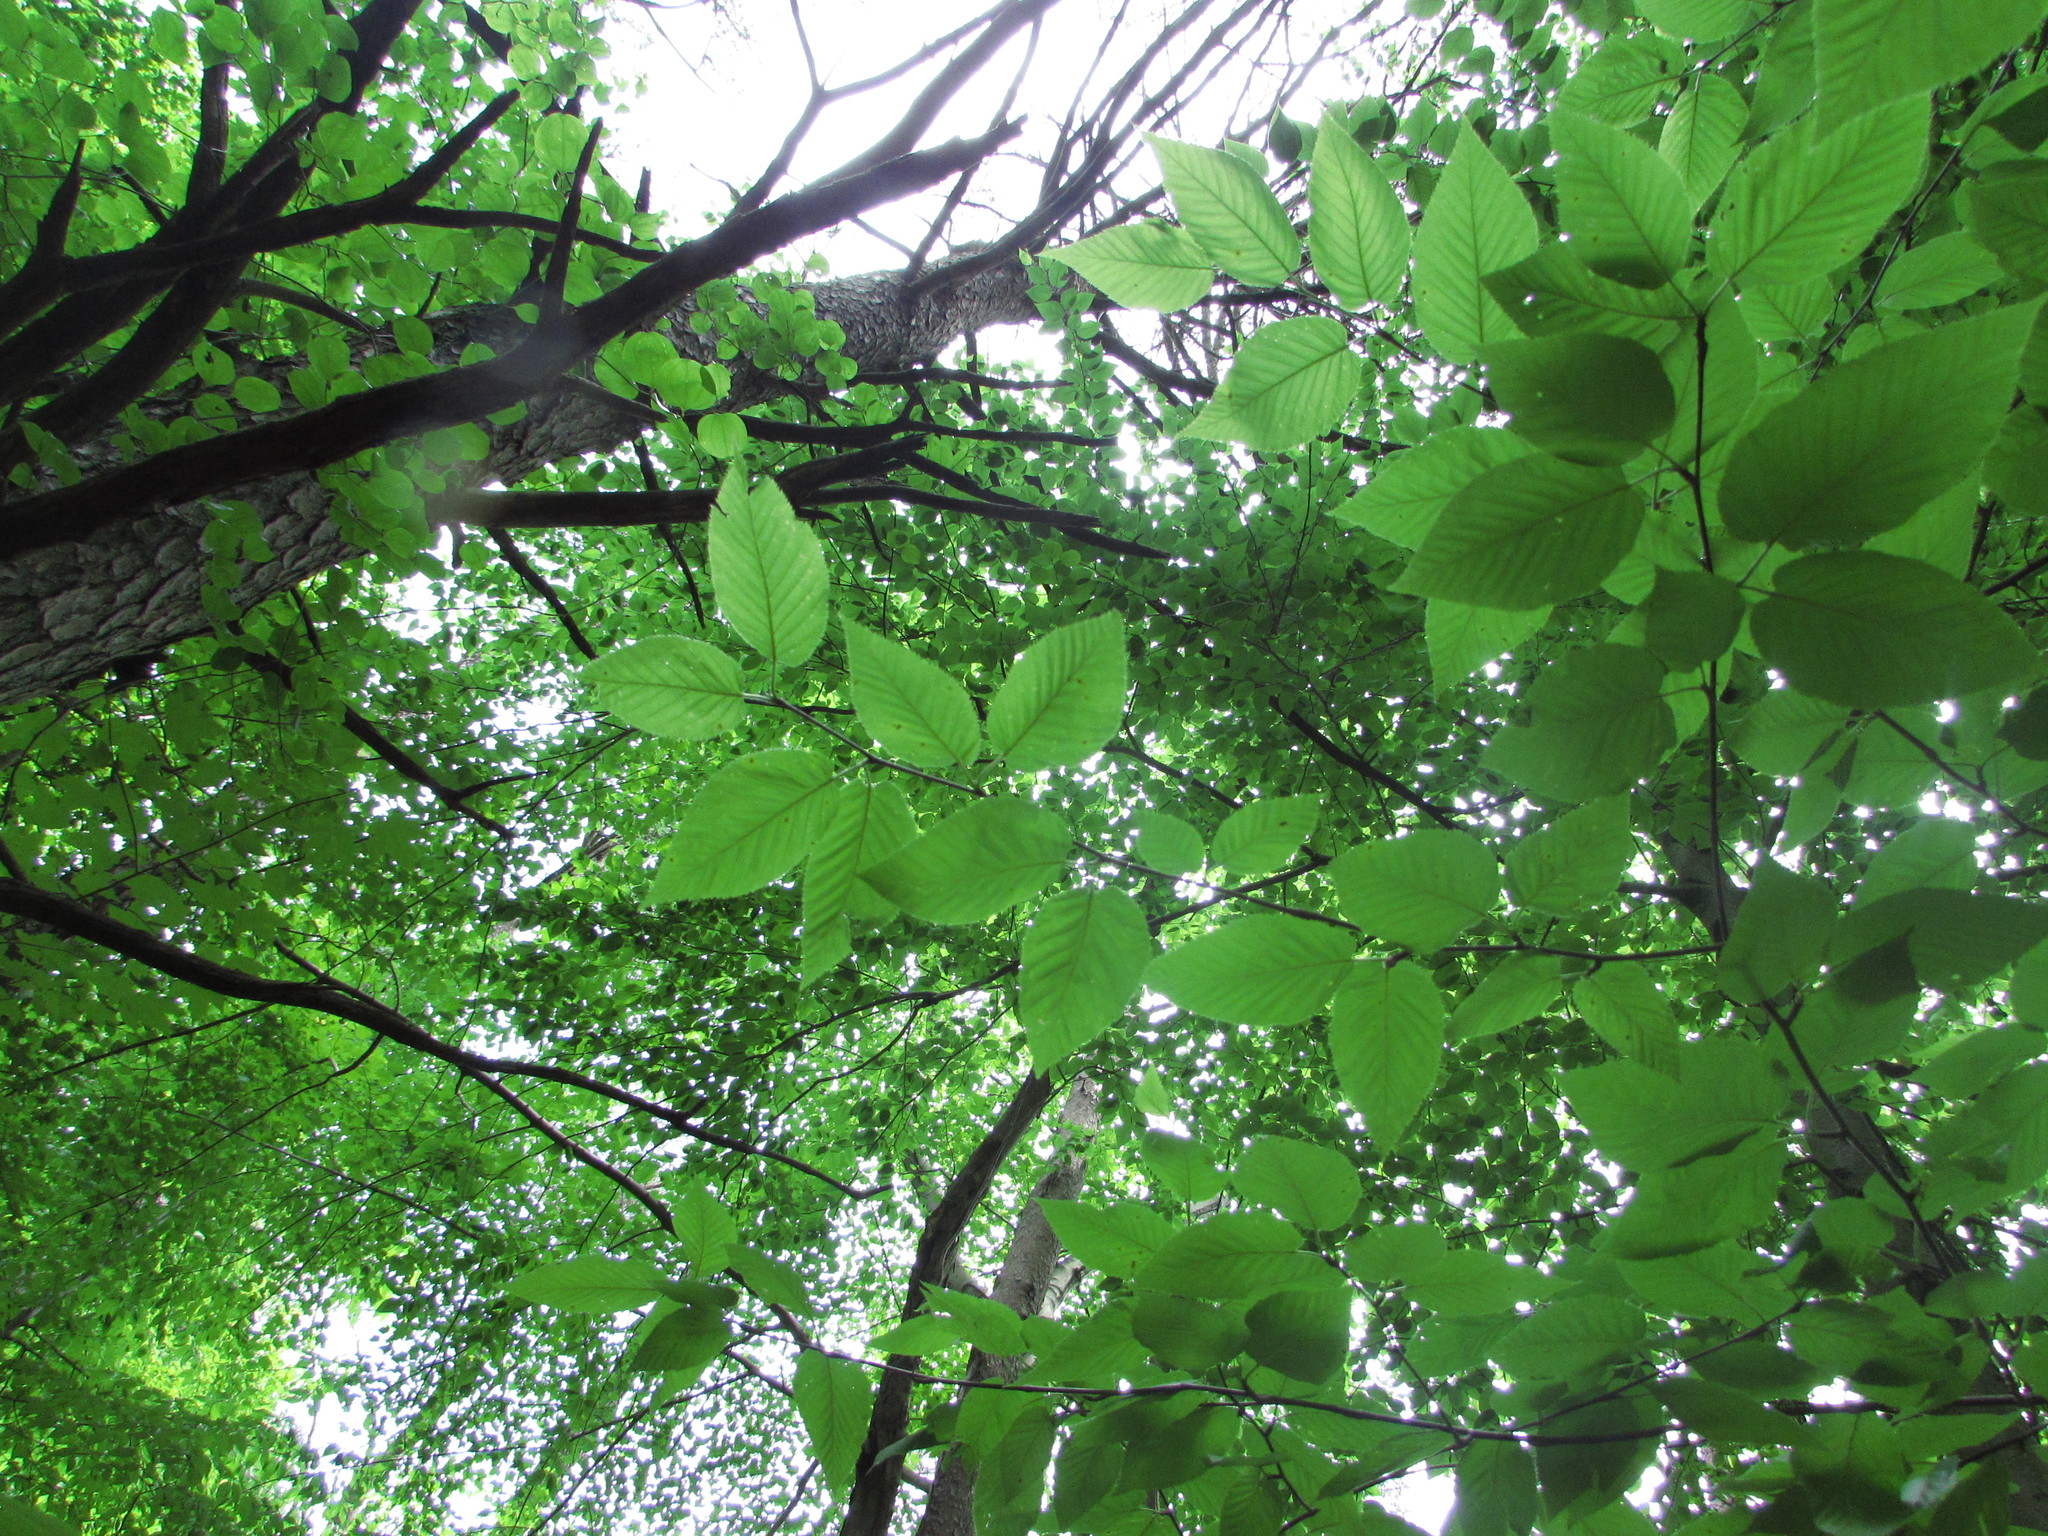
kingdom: Plantae
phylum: Tracheophyta
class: Magnoliopsida
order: Fagales
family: Betulaceae
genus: Betula
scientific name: Betula lenta
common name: Black birch
